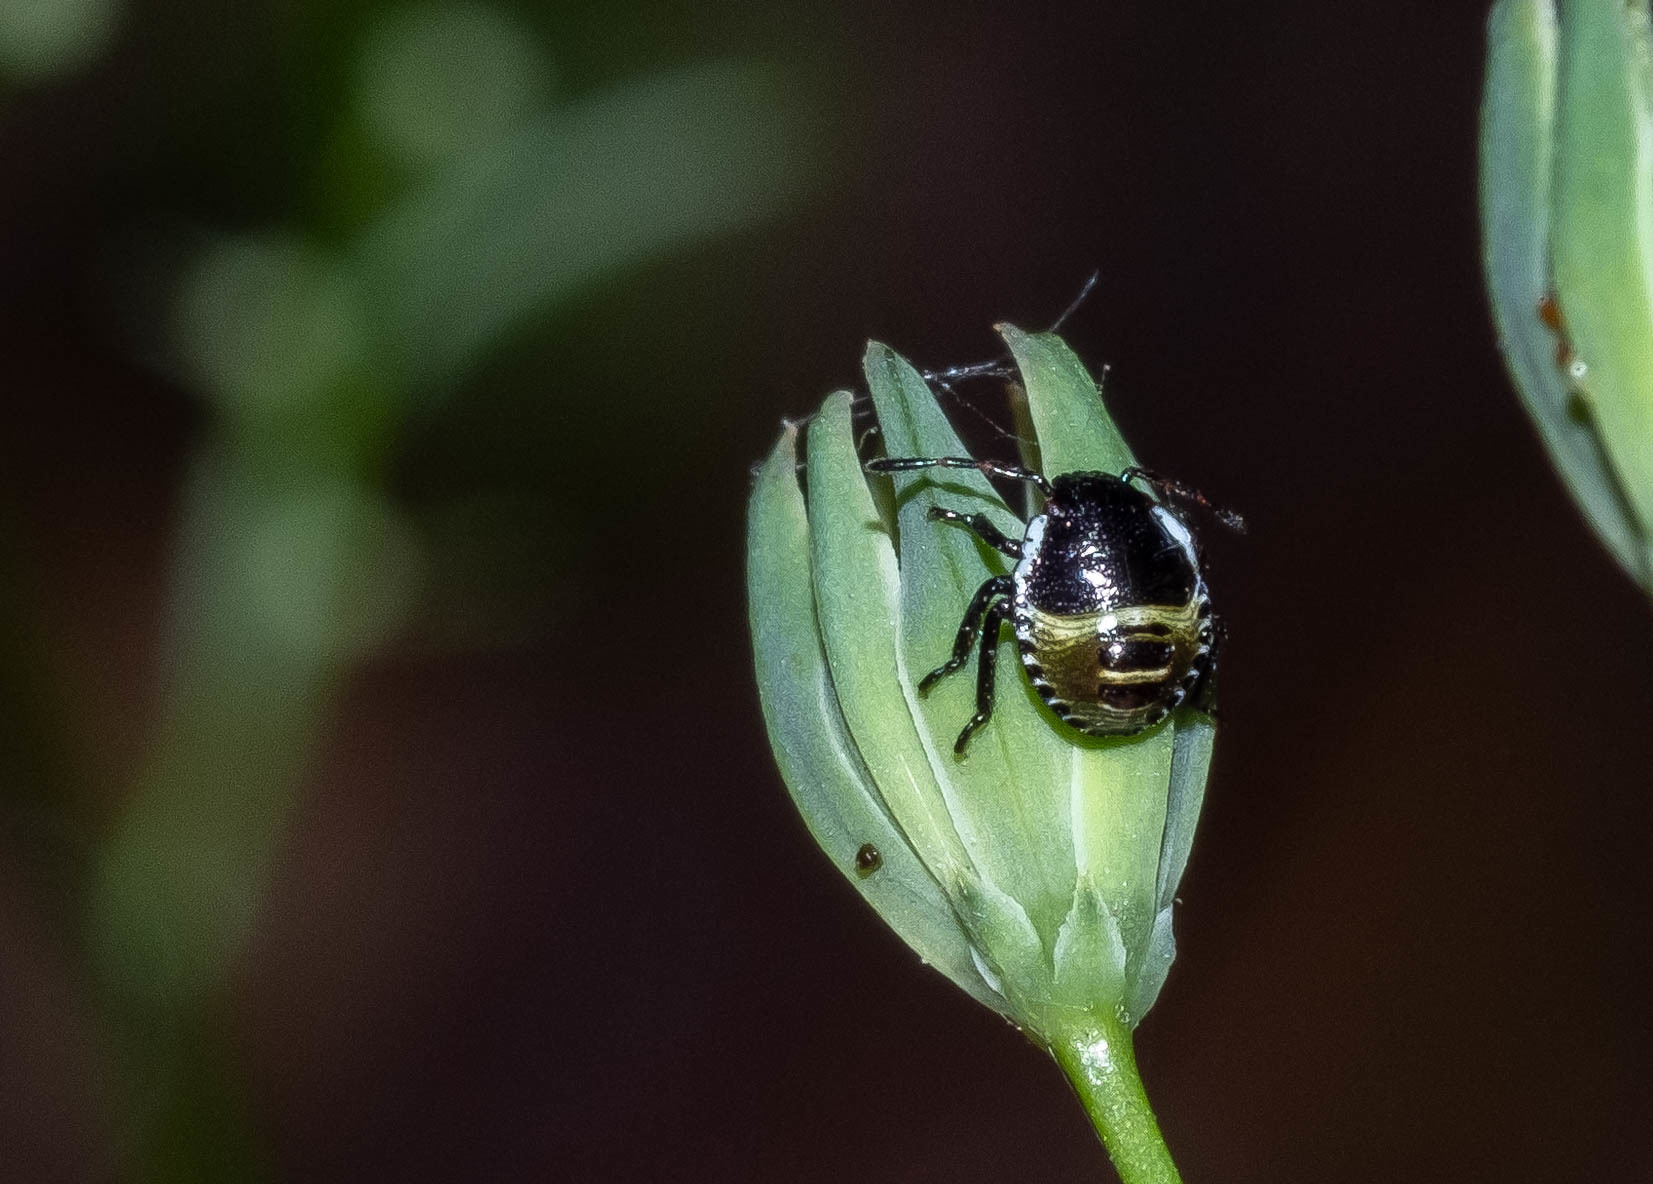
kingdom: Animalia
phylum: Arthropoda
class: Insecta
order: Hemiptera
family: Pentatomidae
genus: Palomena
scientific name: Palomena prasina
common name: Green shieldbug
